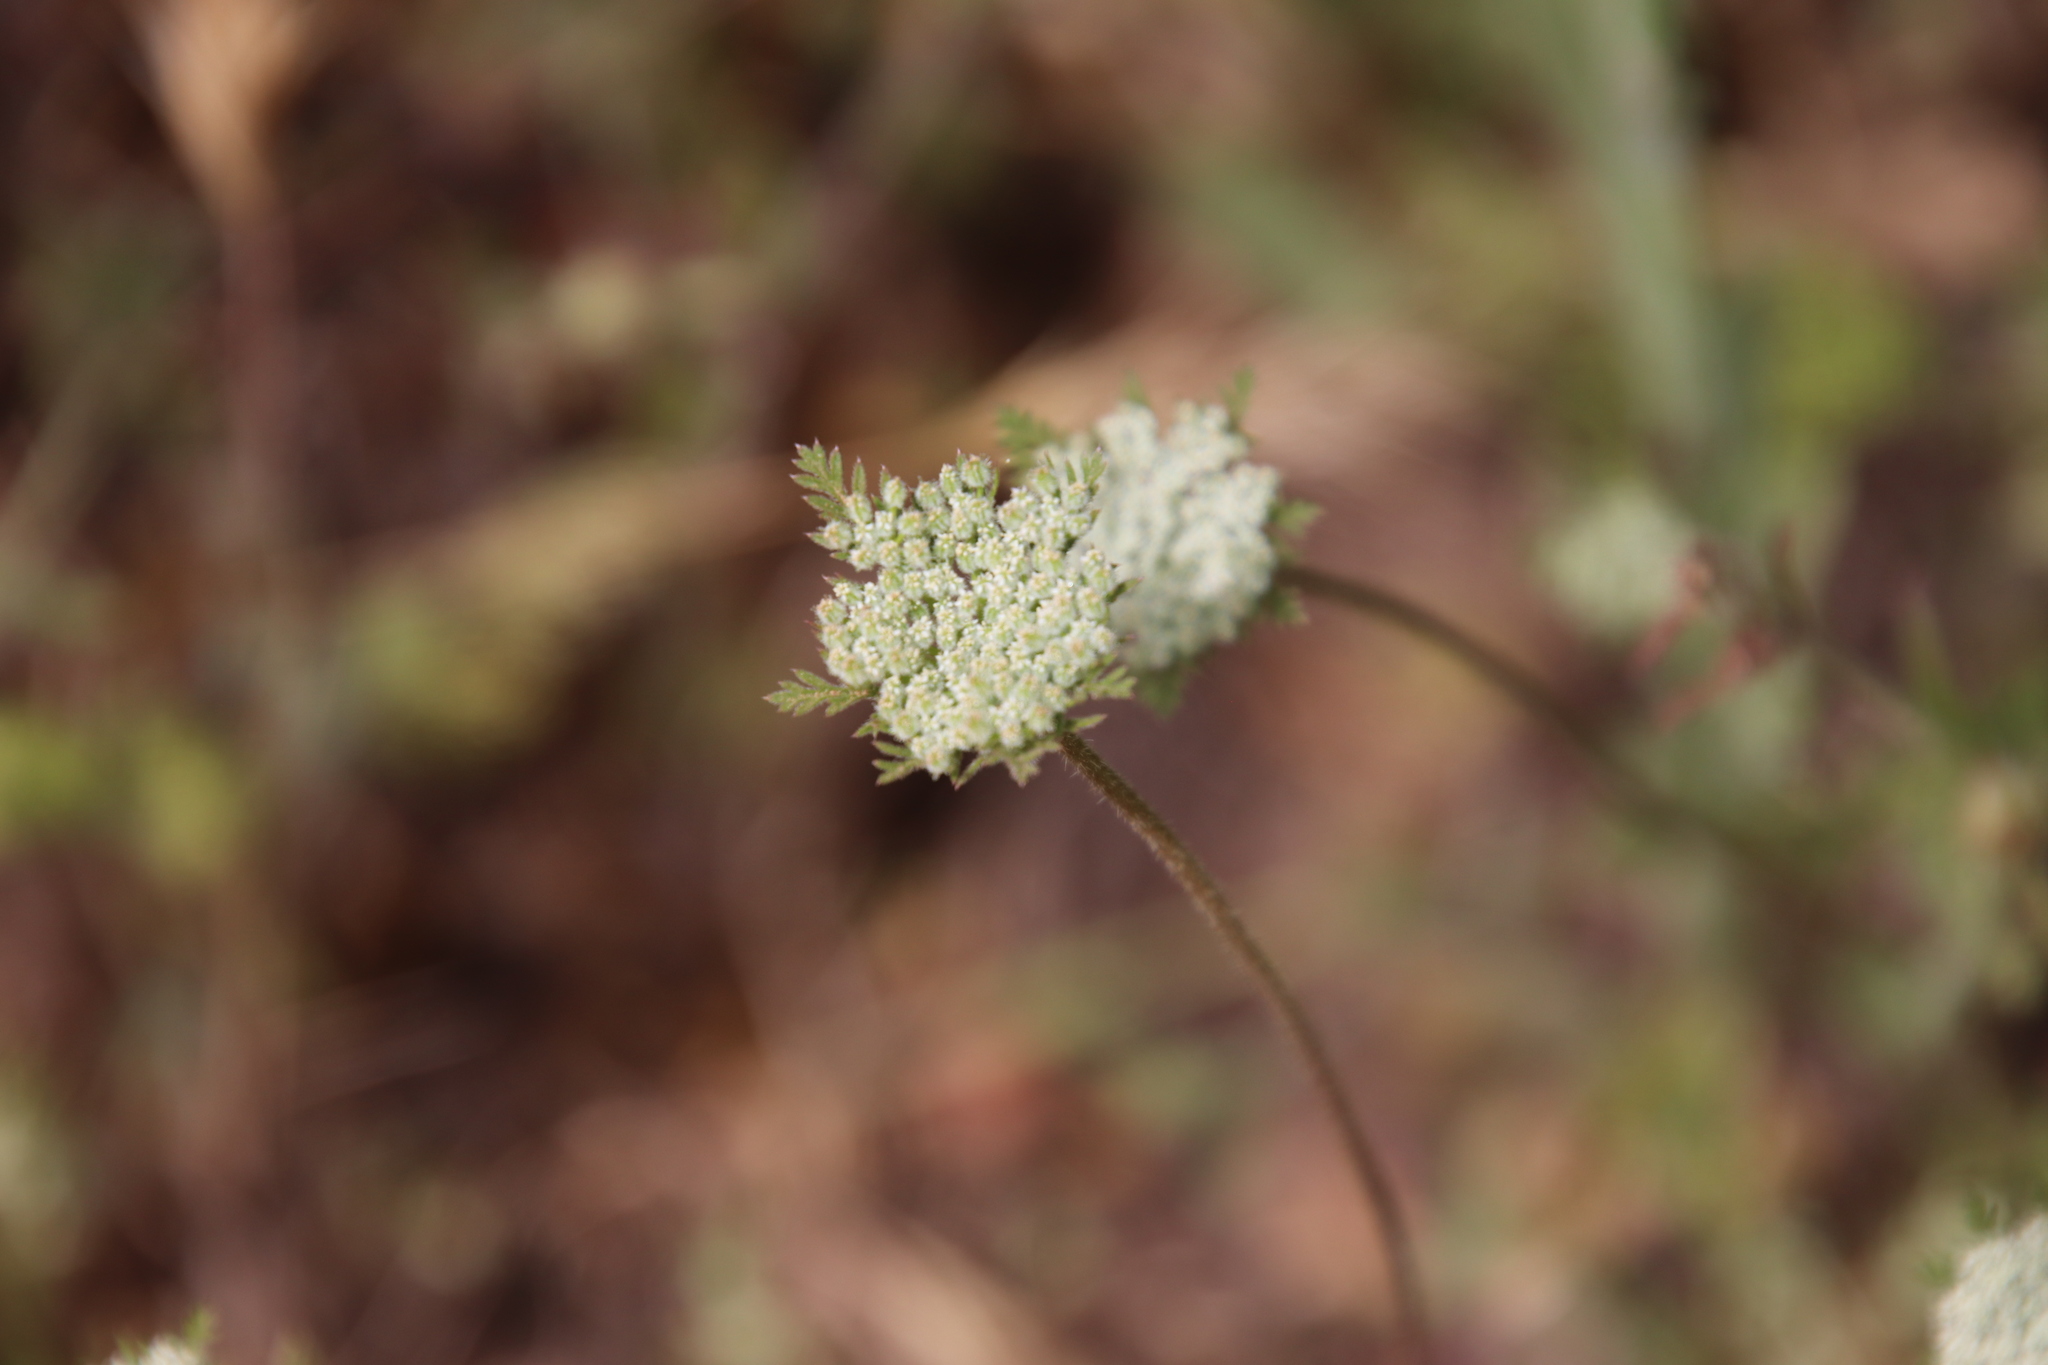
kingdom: Plantae
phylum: Tracheophyta
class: Magnoliopsida
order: Apiales
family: Apiaceae
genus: Daucus
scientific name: Daucus pusillus
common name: Southwest wild carrot
